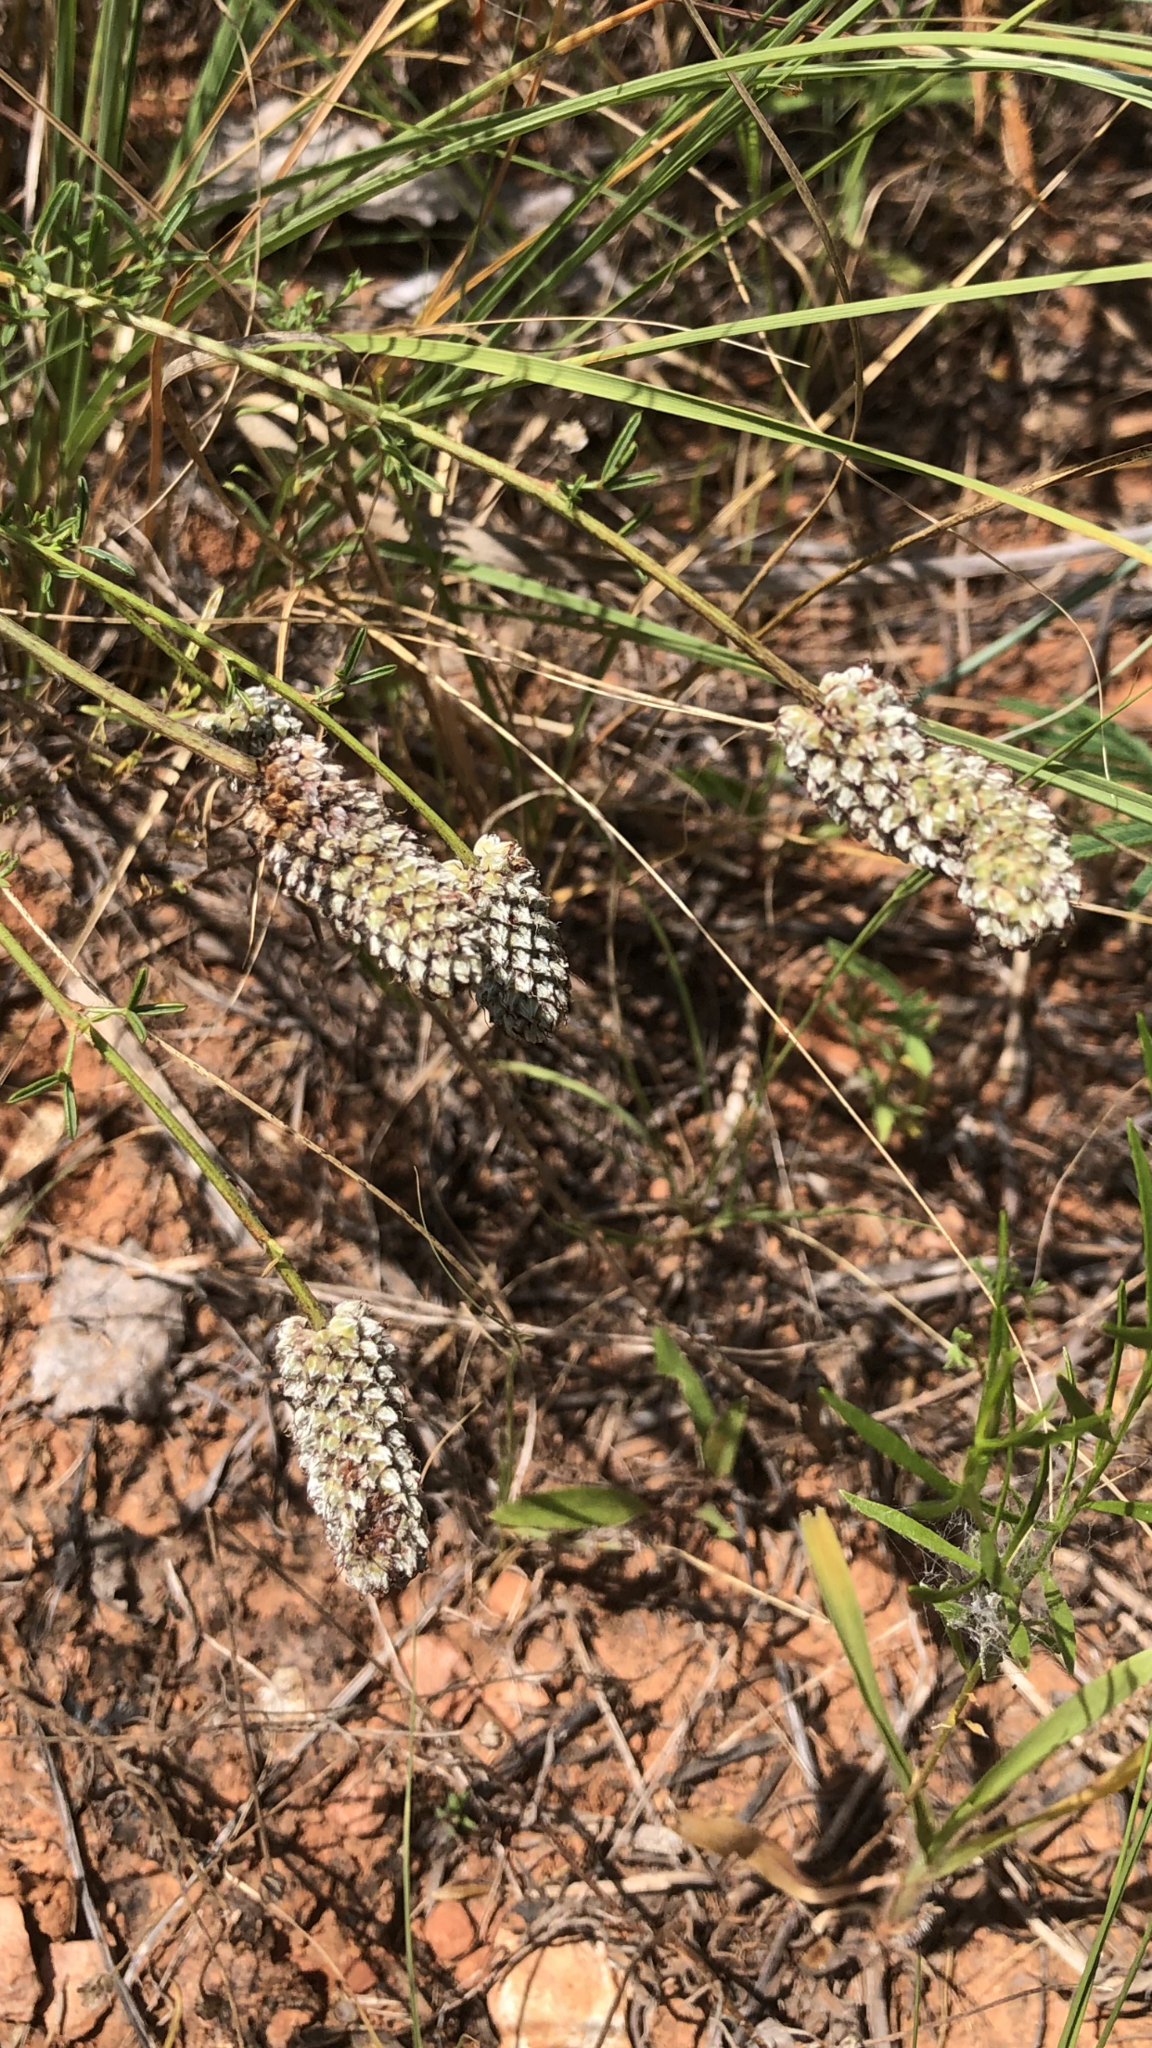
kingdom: Plantae
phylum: Tracheophyta
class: Magnoliopsida
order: Fabales
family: Fabaceae
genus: Dalea
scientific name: Dalea candida
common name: White prairie-clover
